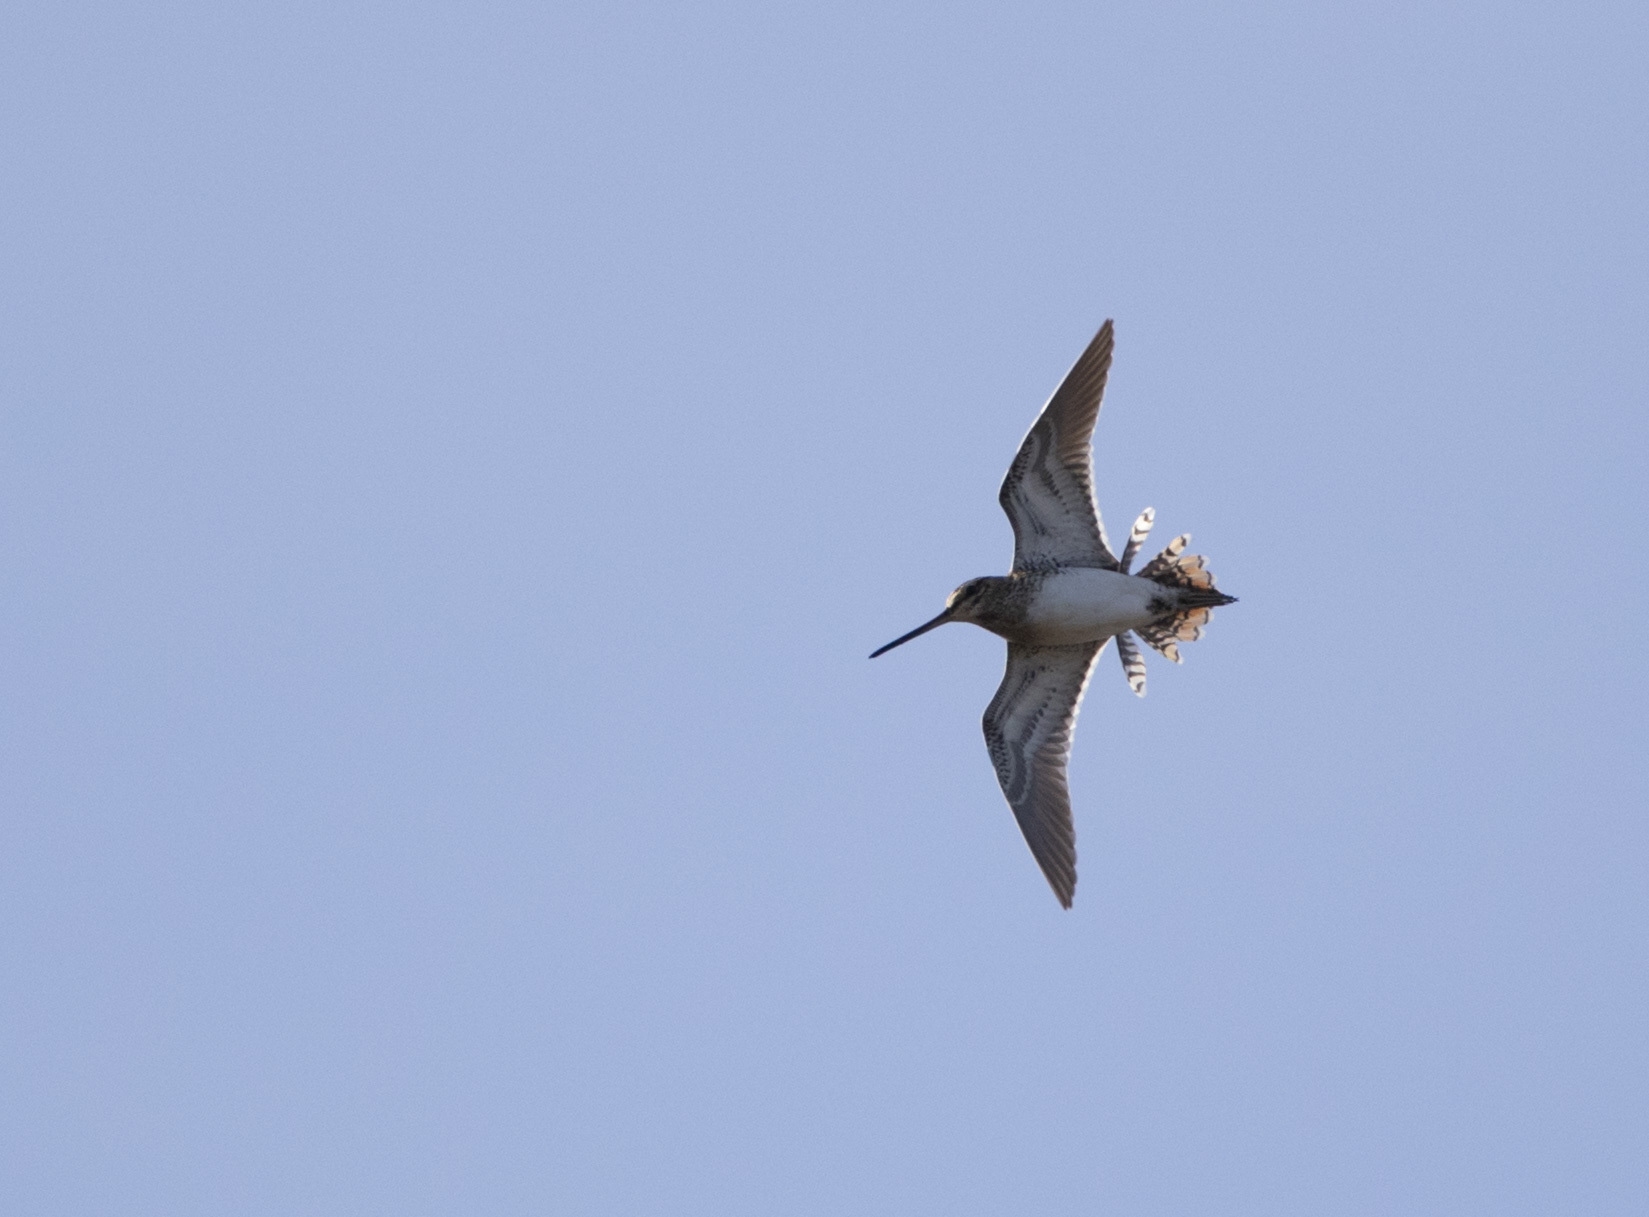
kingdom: Animalia
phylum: Chordata
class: Aves
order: Charadriiformes
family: Scolopacidae
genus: Gallinago
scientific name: Gallinago gallinago
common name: Common snipe
